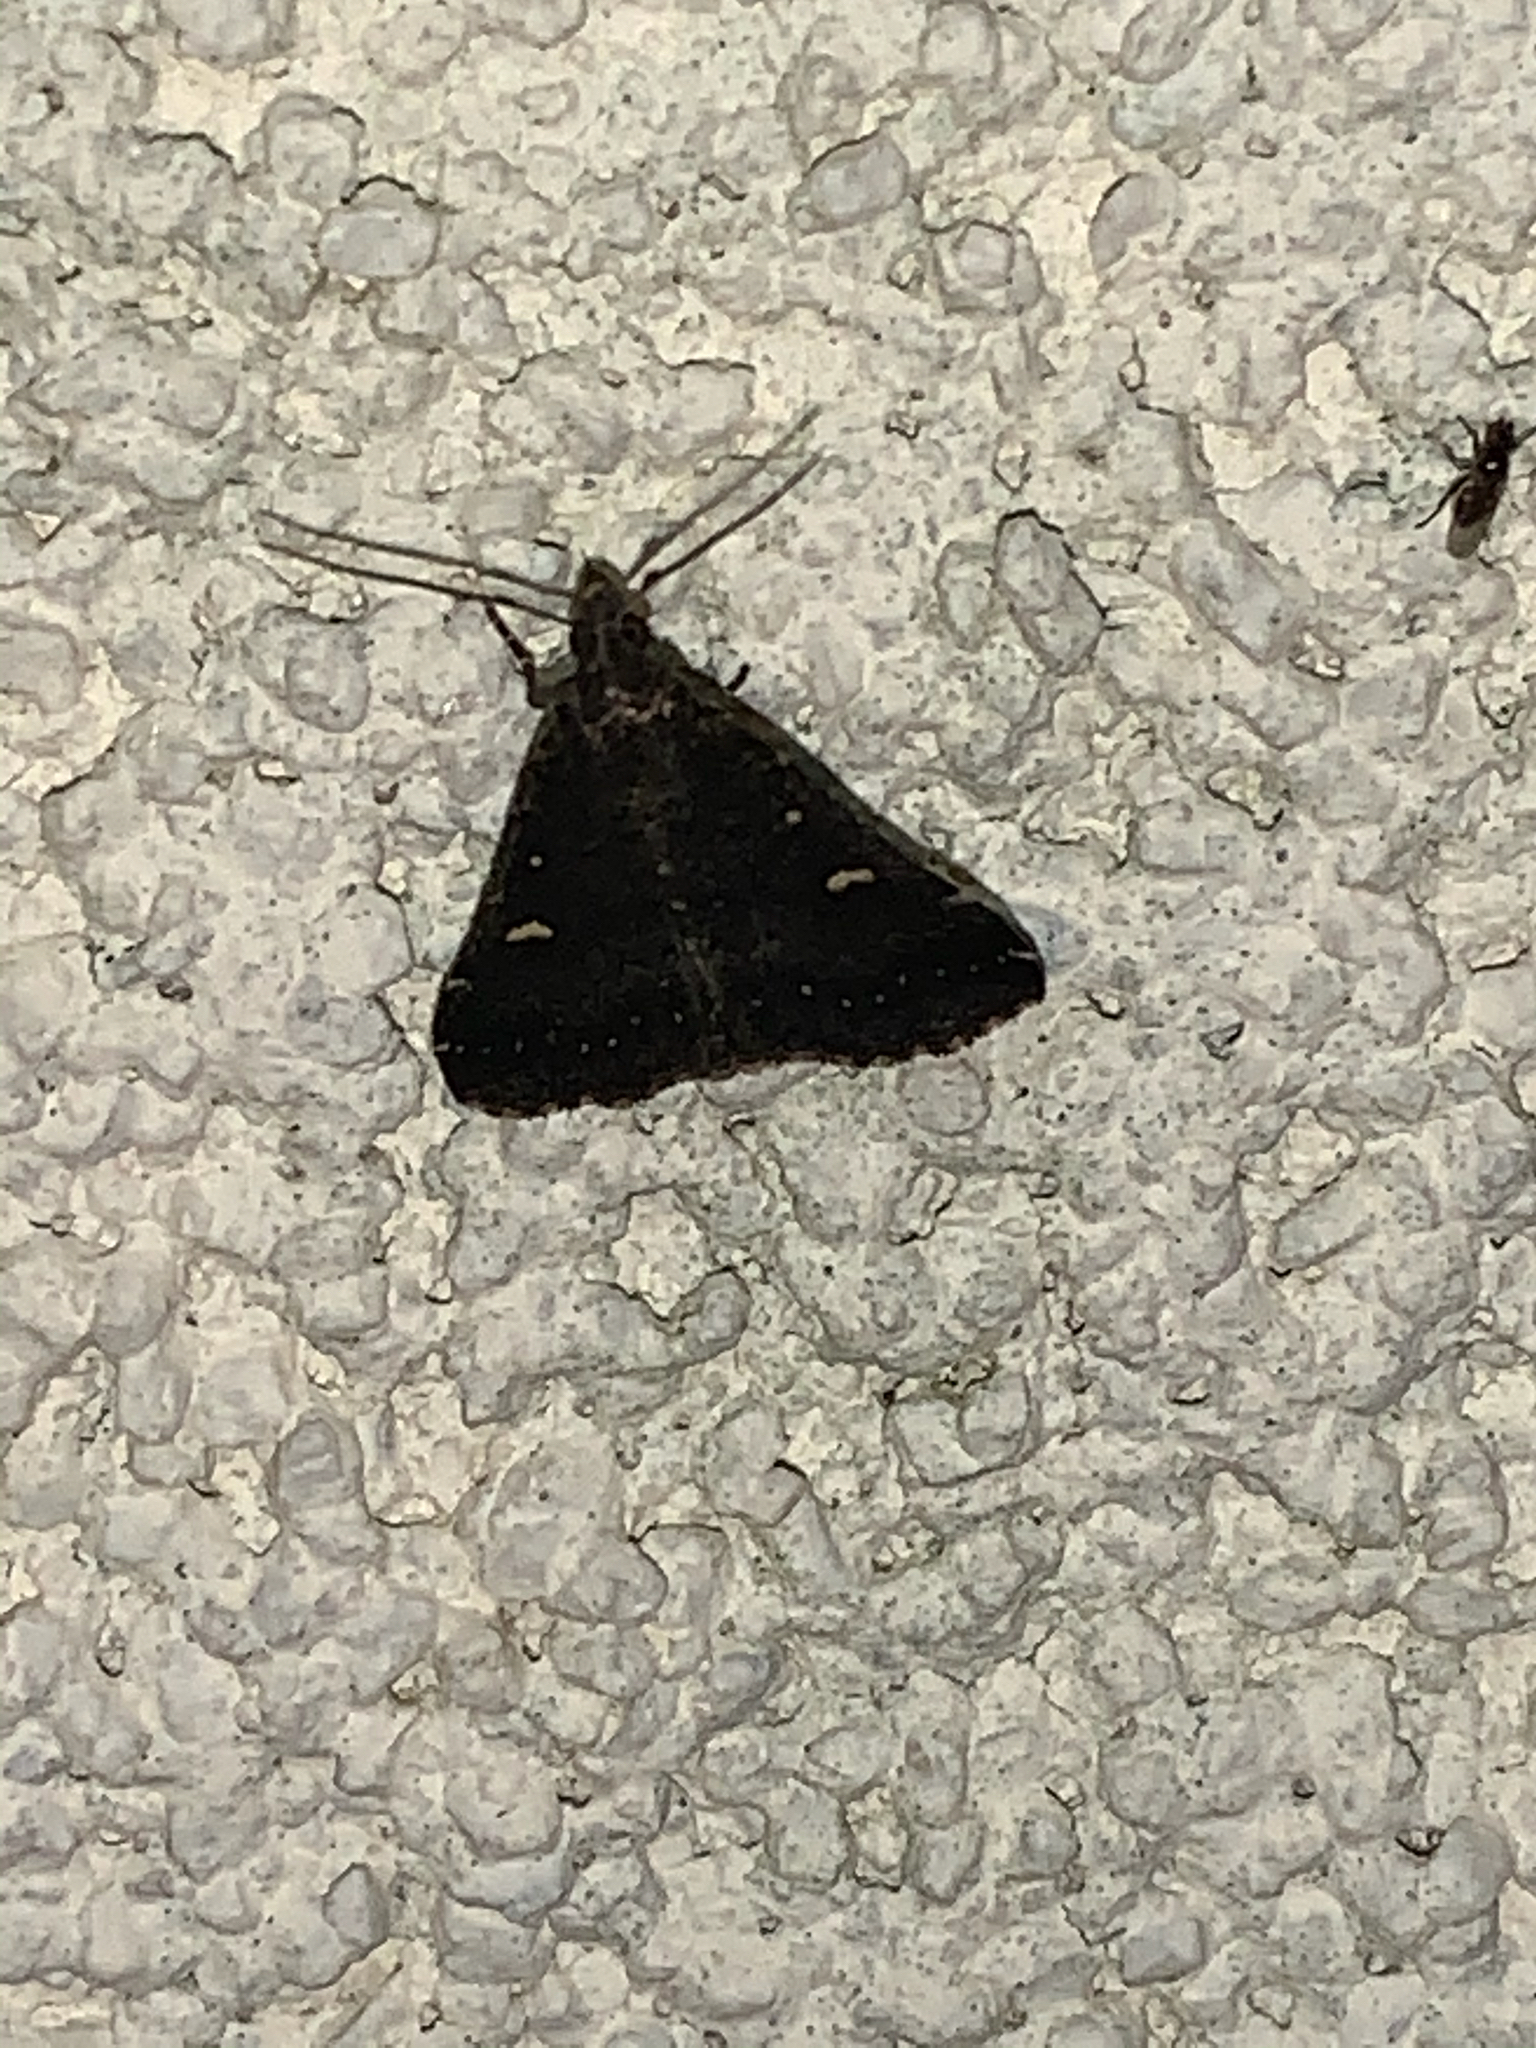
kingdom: Animalia
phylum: Arthropoda
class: Insecta
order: Lepidoptera
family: Erebidae
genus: Tetanolita
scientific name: Tetanolita mynesalis
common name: Smoky tetanolita moth
